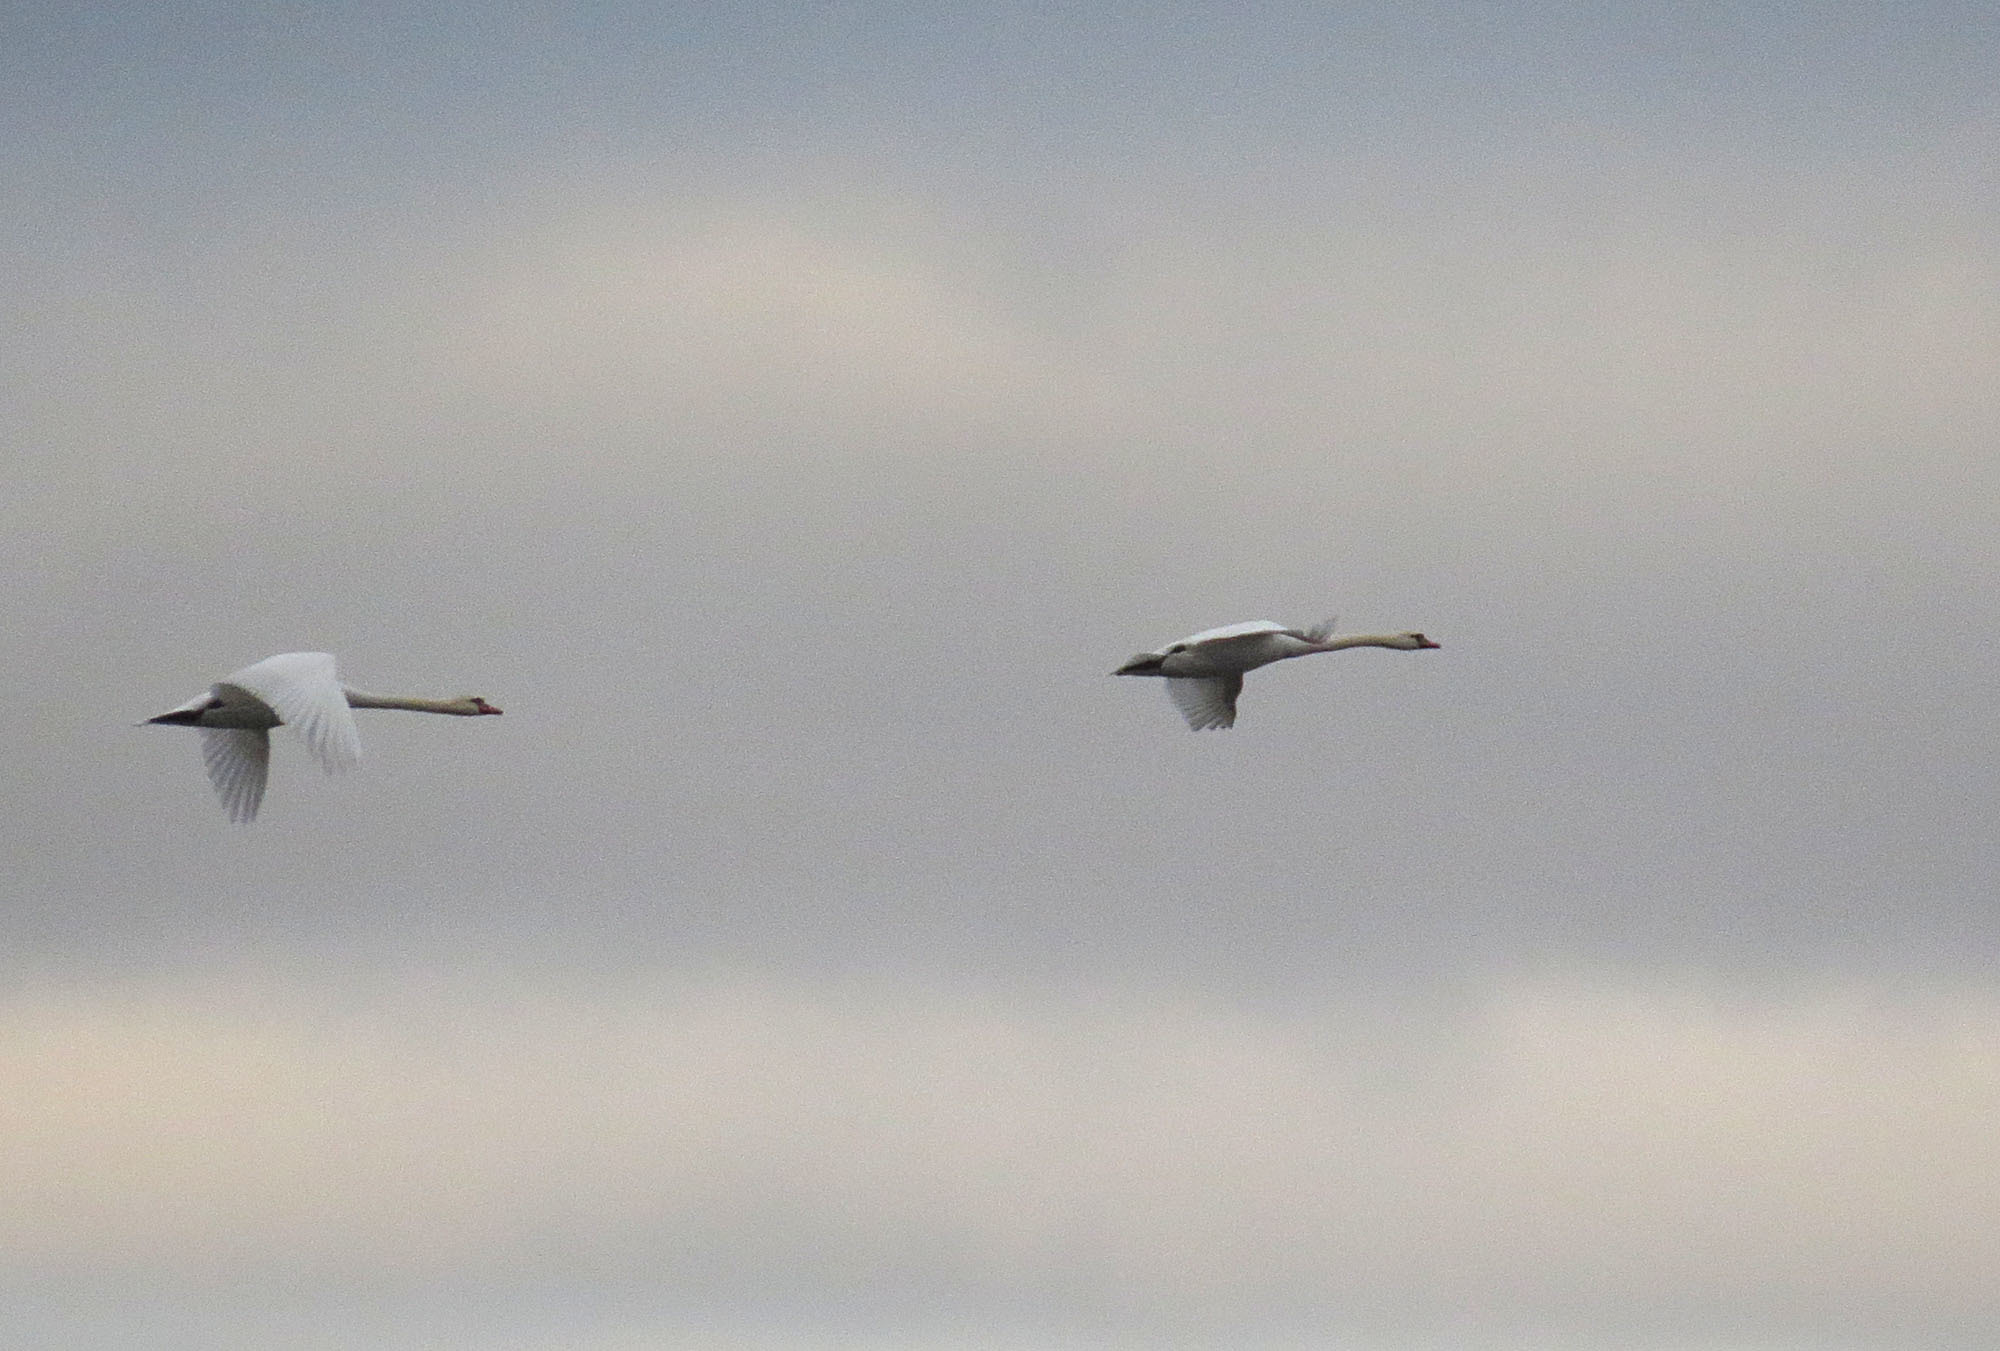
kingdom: Animalia
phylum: Chordata
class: Aves
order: Anseriformes
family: Anatidae
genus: Cygnus
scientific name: Cygnus olor
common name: Mute swan
